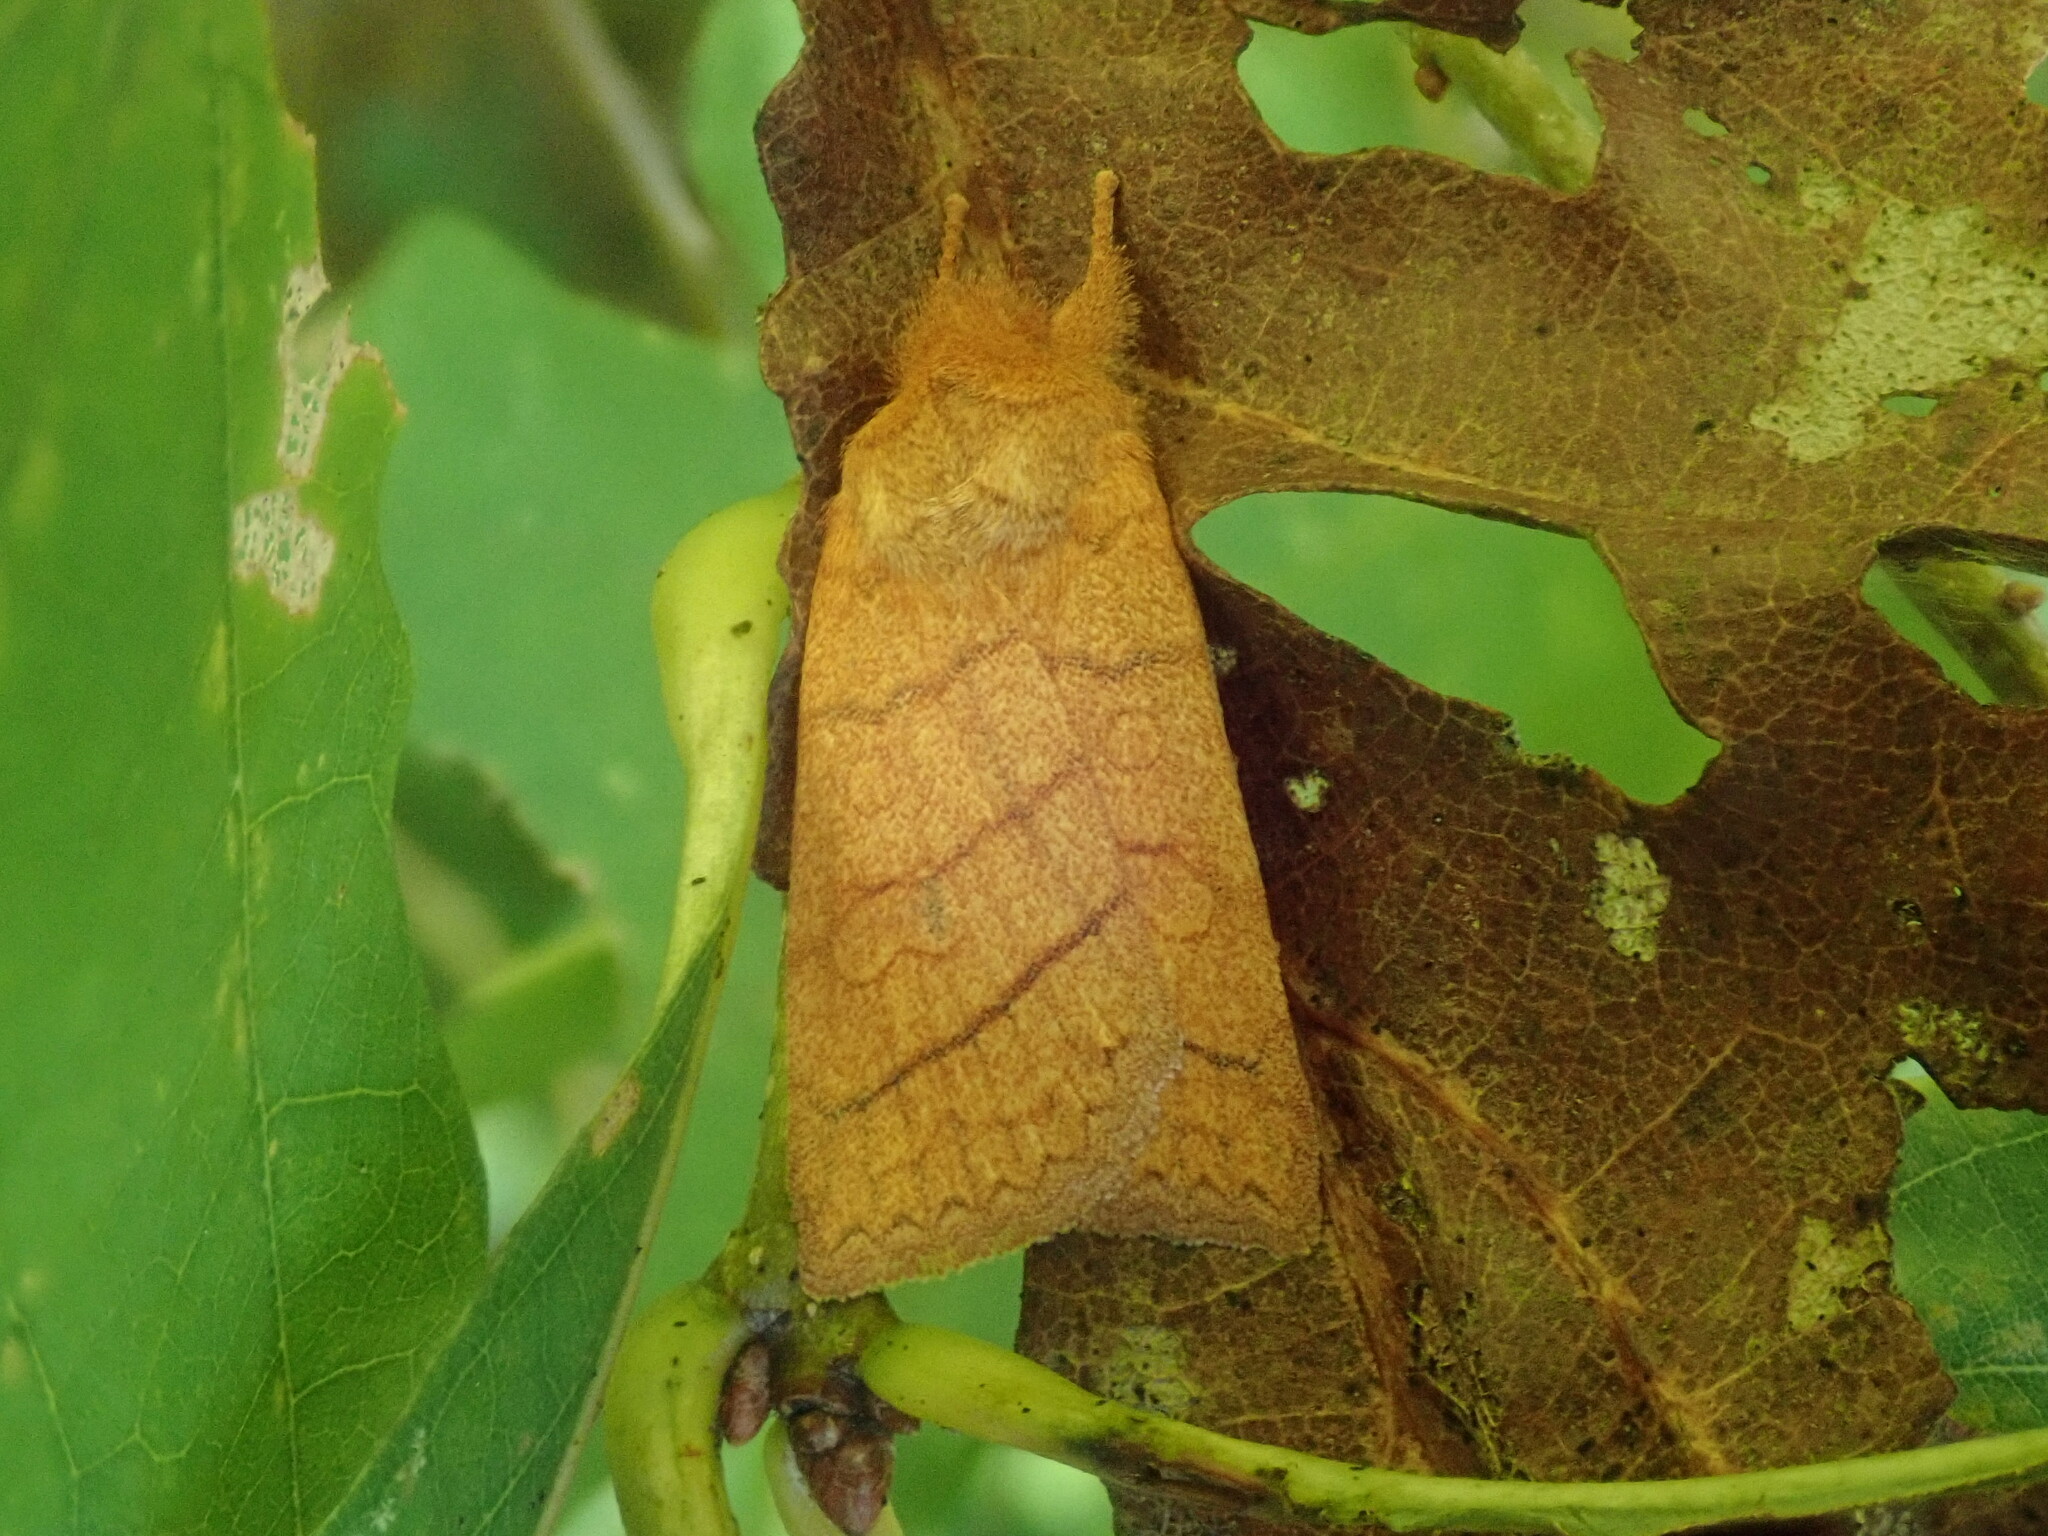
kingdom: Animalia
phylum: Arthropoda
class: Insecta
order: Lepidoptera
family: Noctuidae
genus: Pyreferra
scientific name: Pyreferra hesperidago
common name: Mustard sallow
